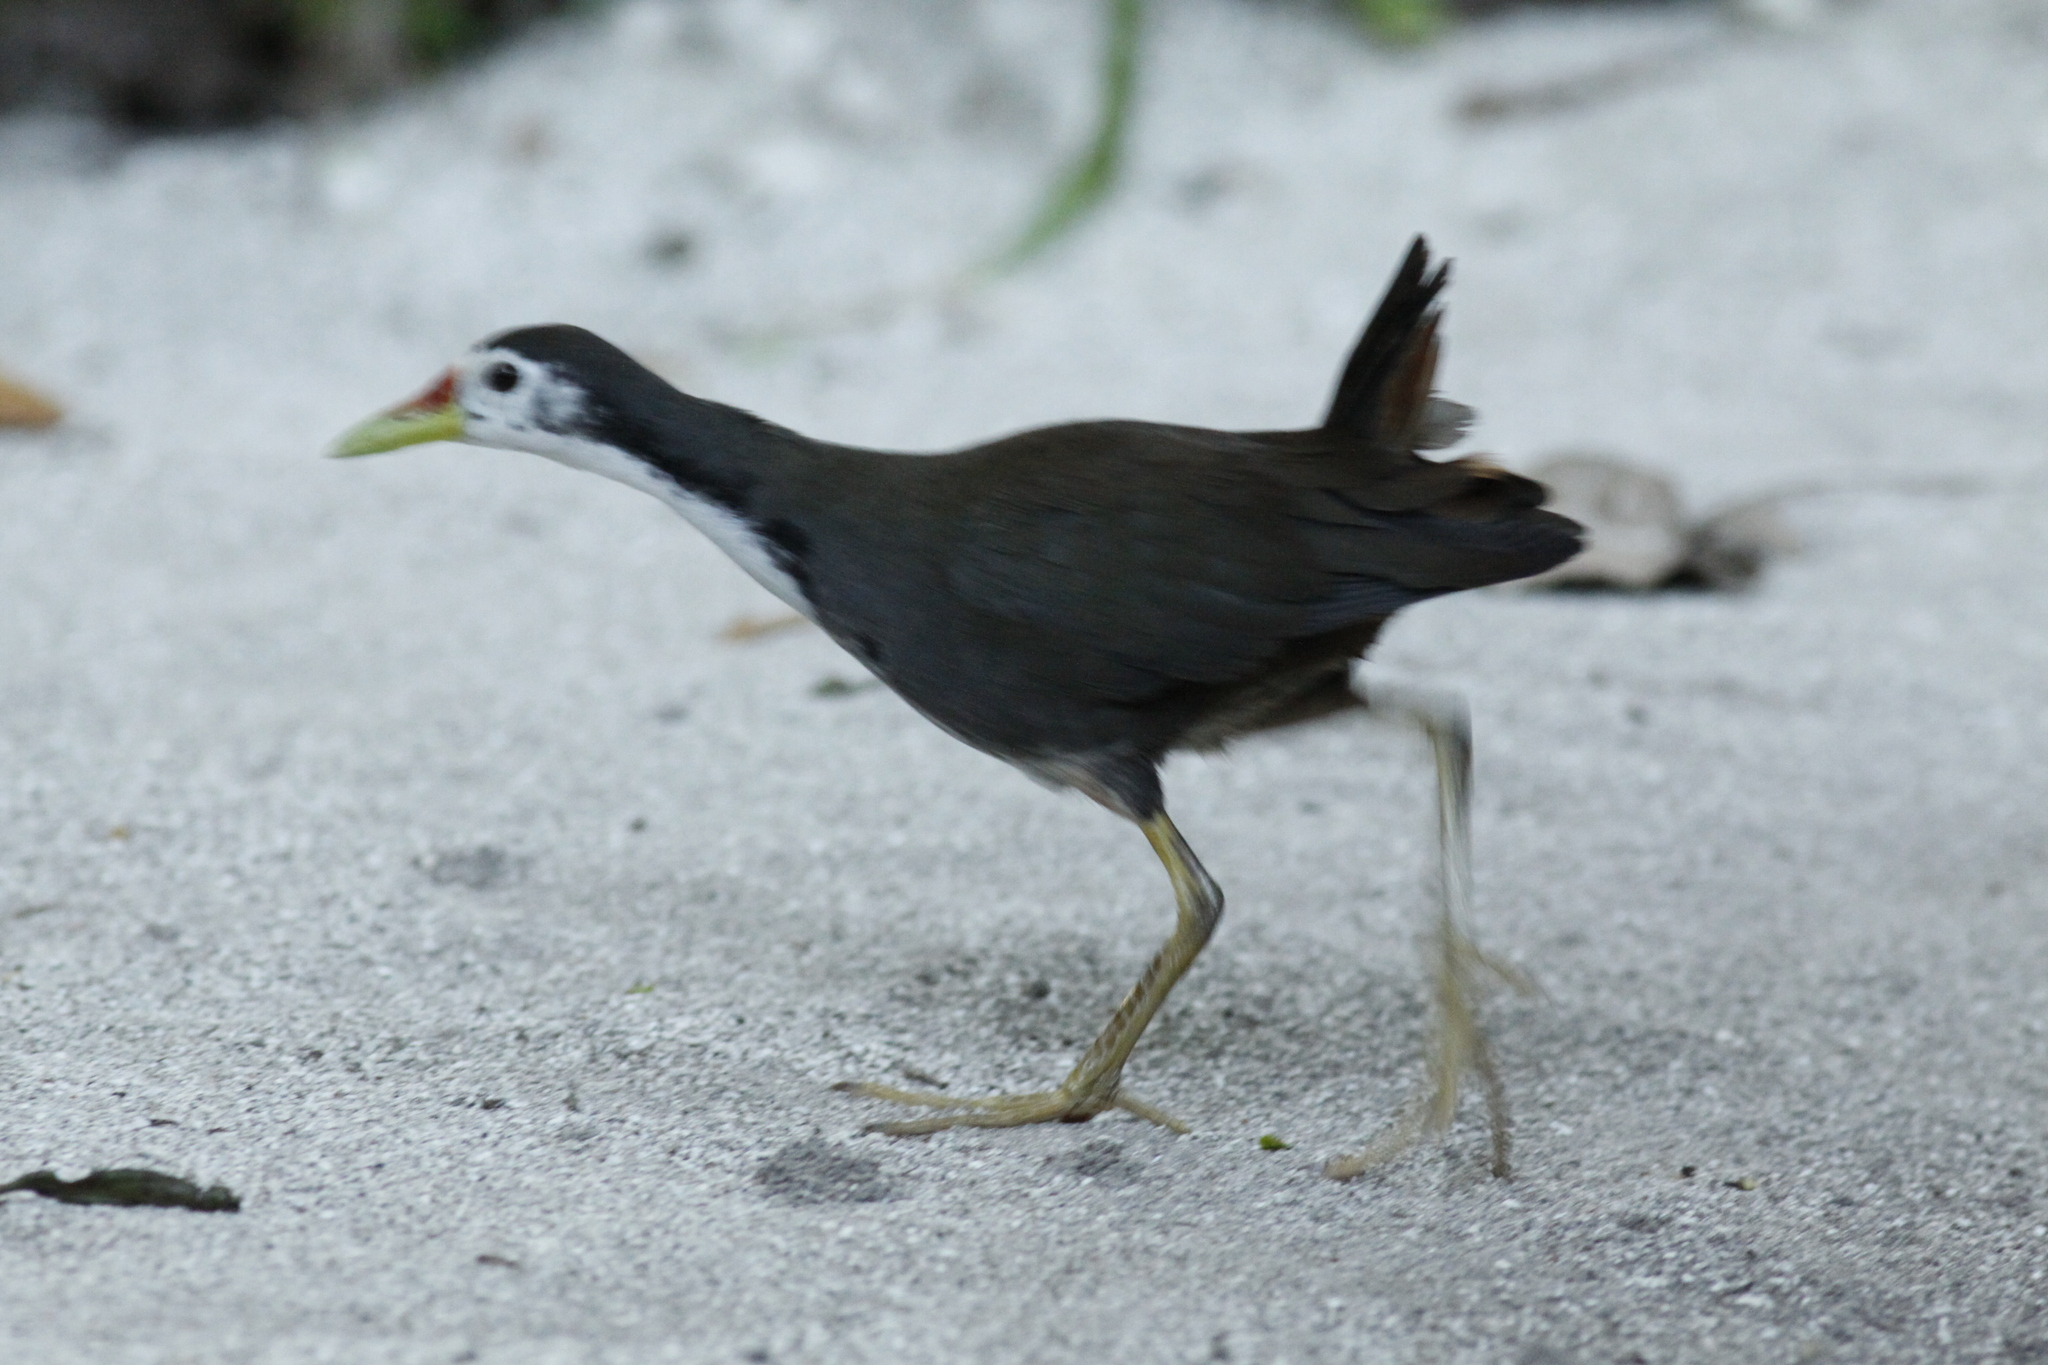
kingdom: Animalia
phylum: Chordata
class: Aves
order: Gruiformes
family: Rallidae
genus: Amaurornis
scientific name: Amaurornis phoenicurus
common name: White-breasted waterhen
